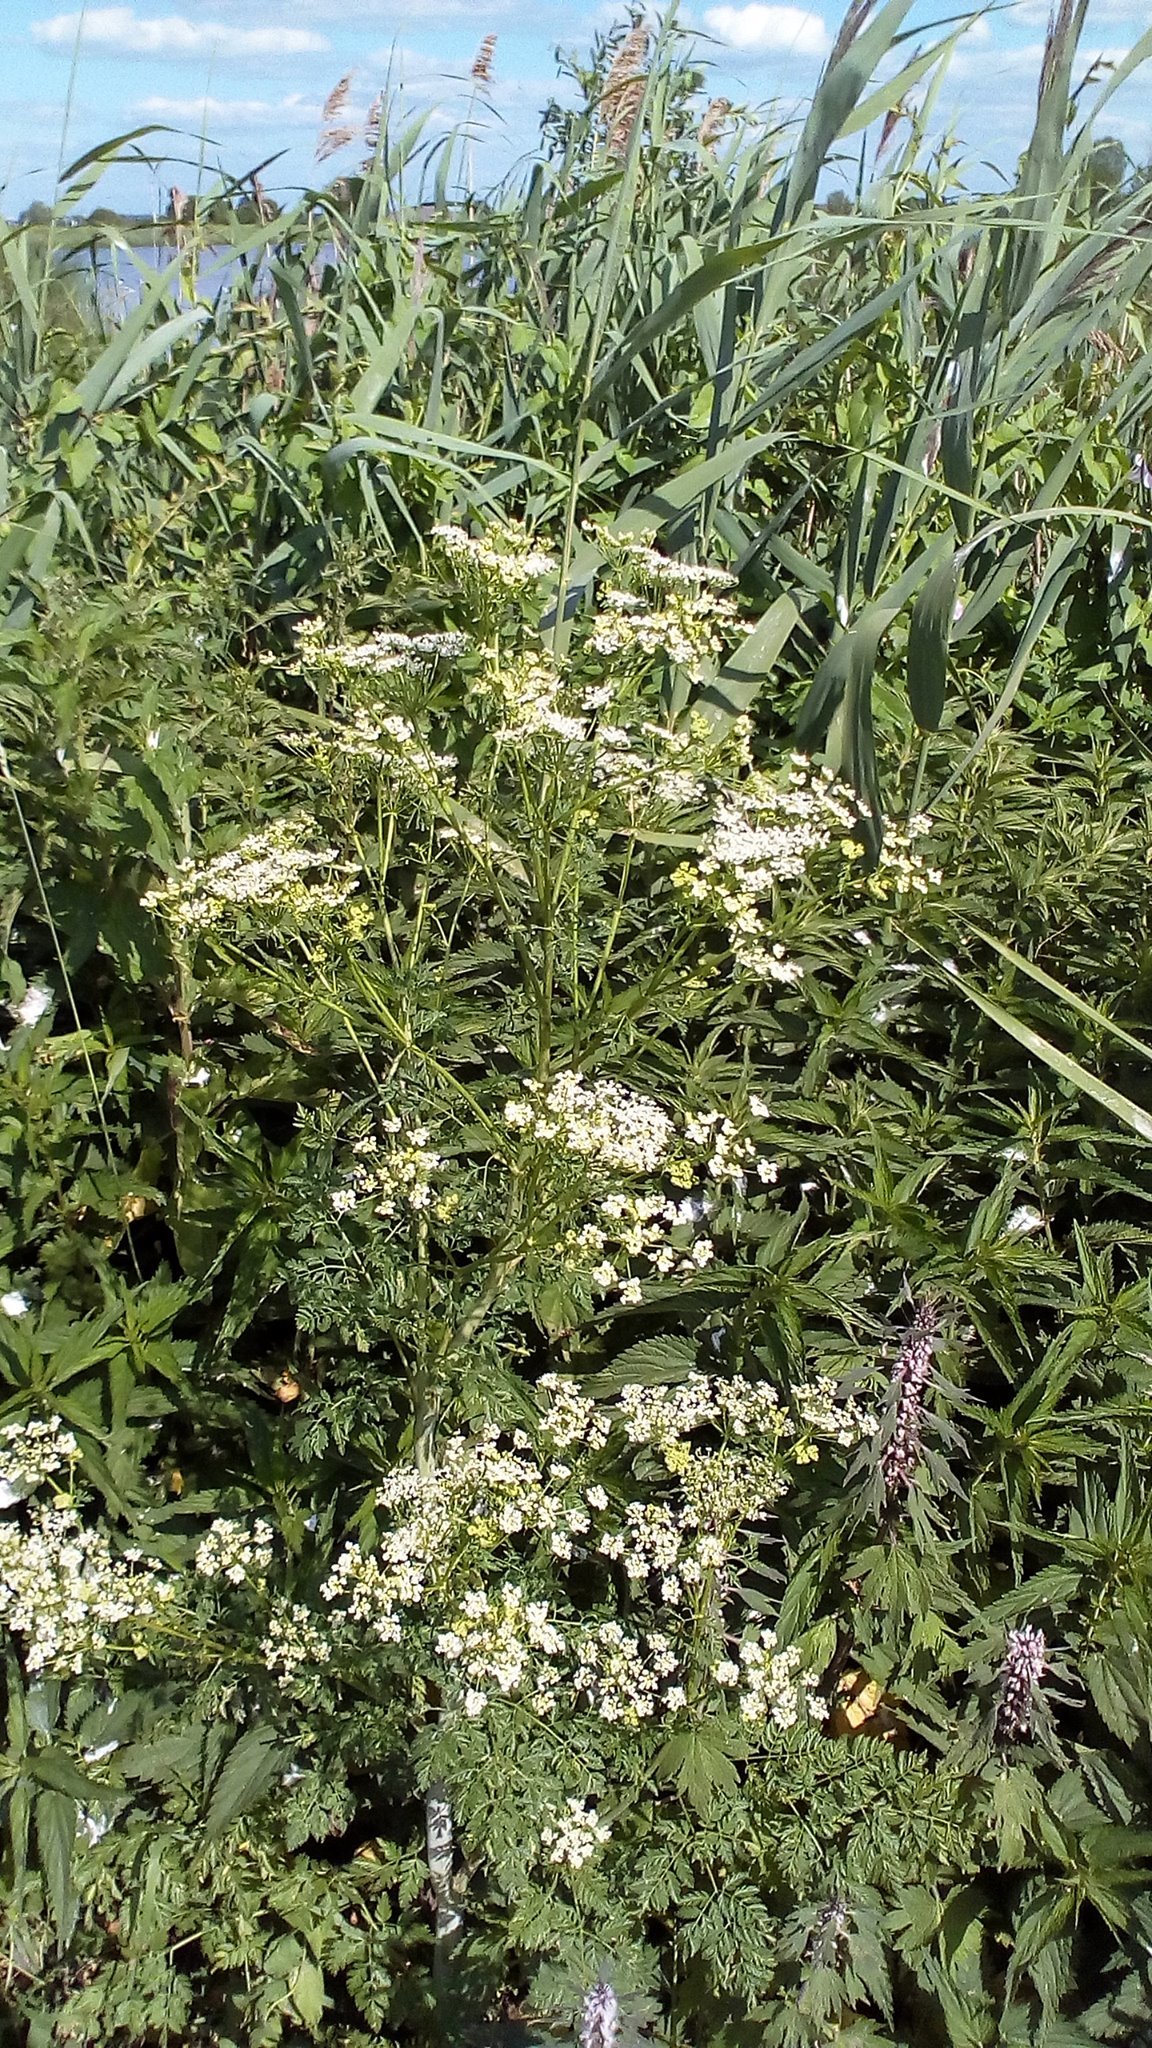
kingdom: Plantae
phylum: Tracheophyta
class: Magnoliopsida
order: Apiales
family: Apiaceae
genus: Anthriscus
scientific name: Anthriscus sylvestris
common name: Cow parsley
